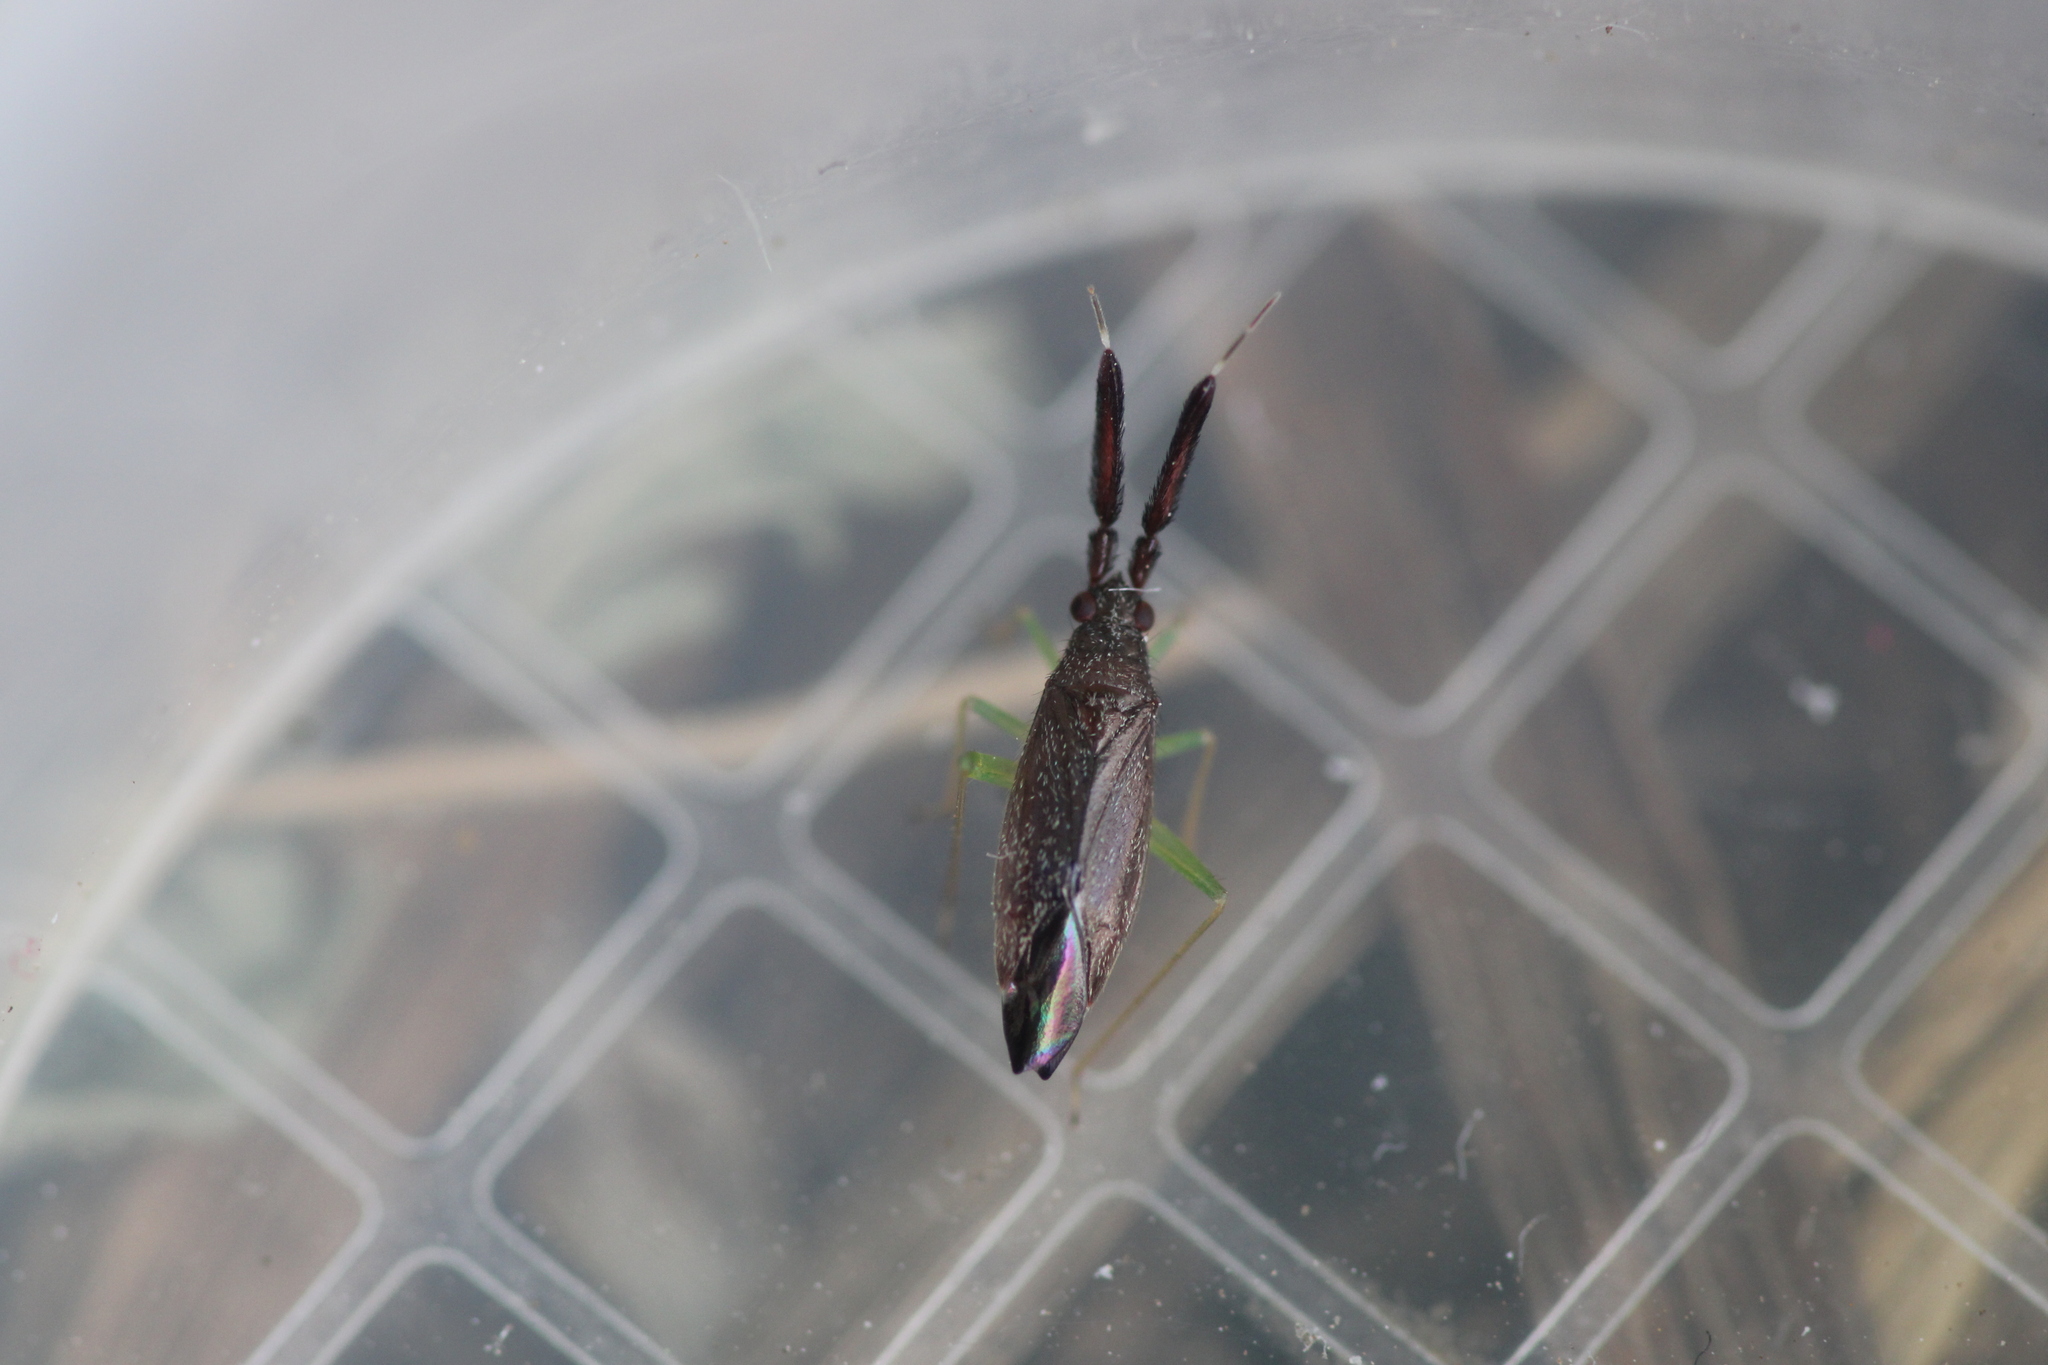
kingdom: Animalia
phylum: Arthropoda
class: Insecta
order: Hemiptera
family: Miridae
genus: Heterotoma
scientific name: Heterotoma planicornis
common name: Plant bug
